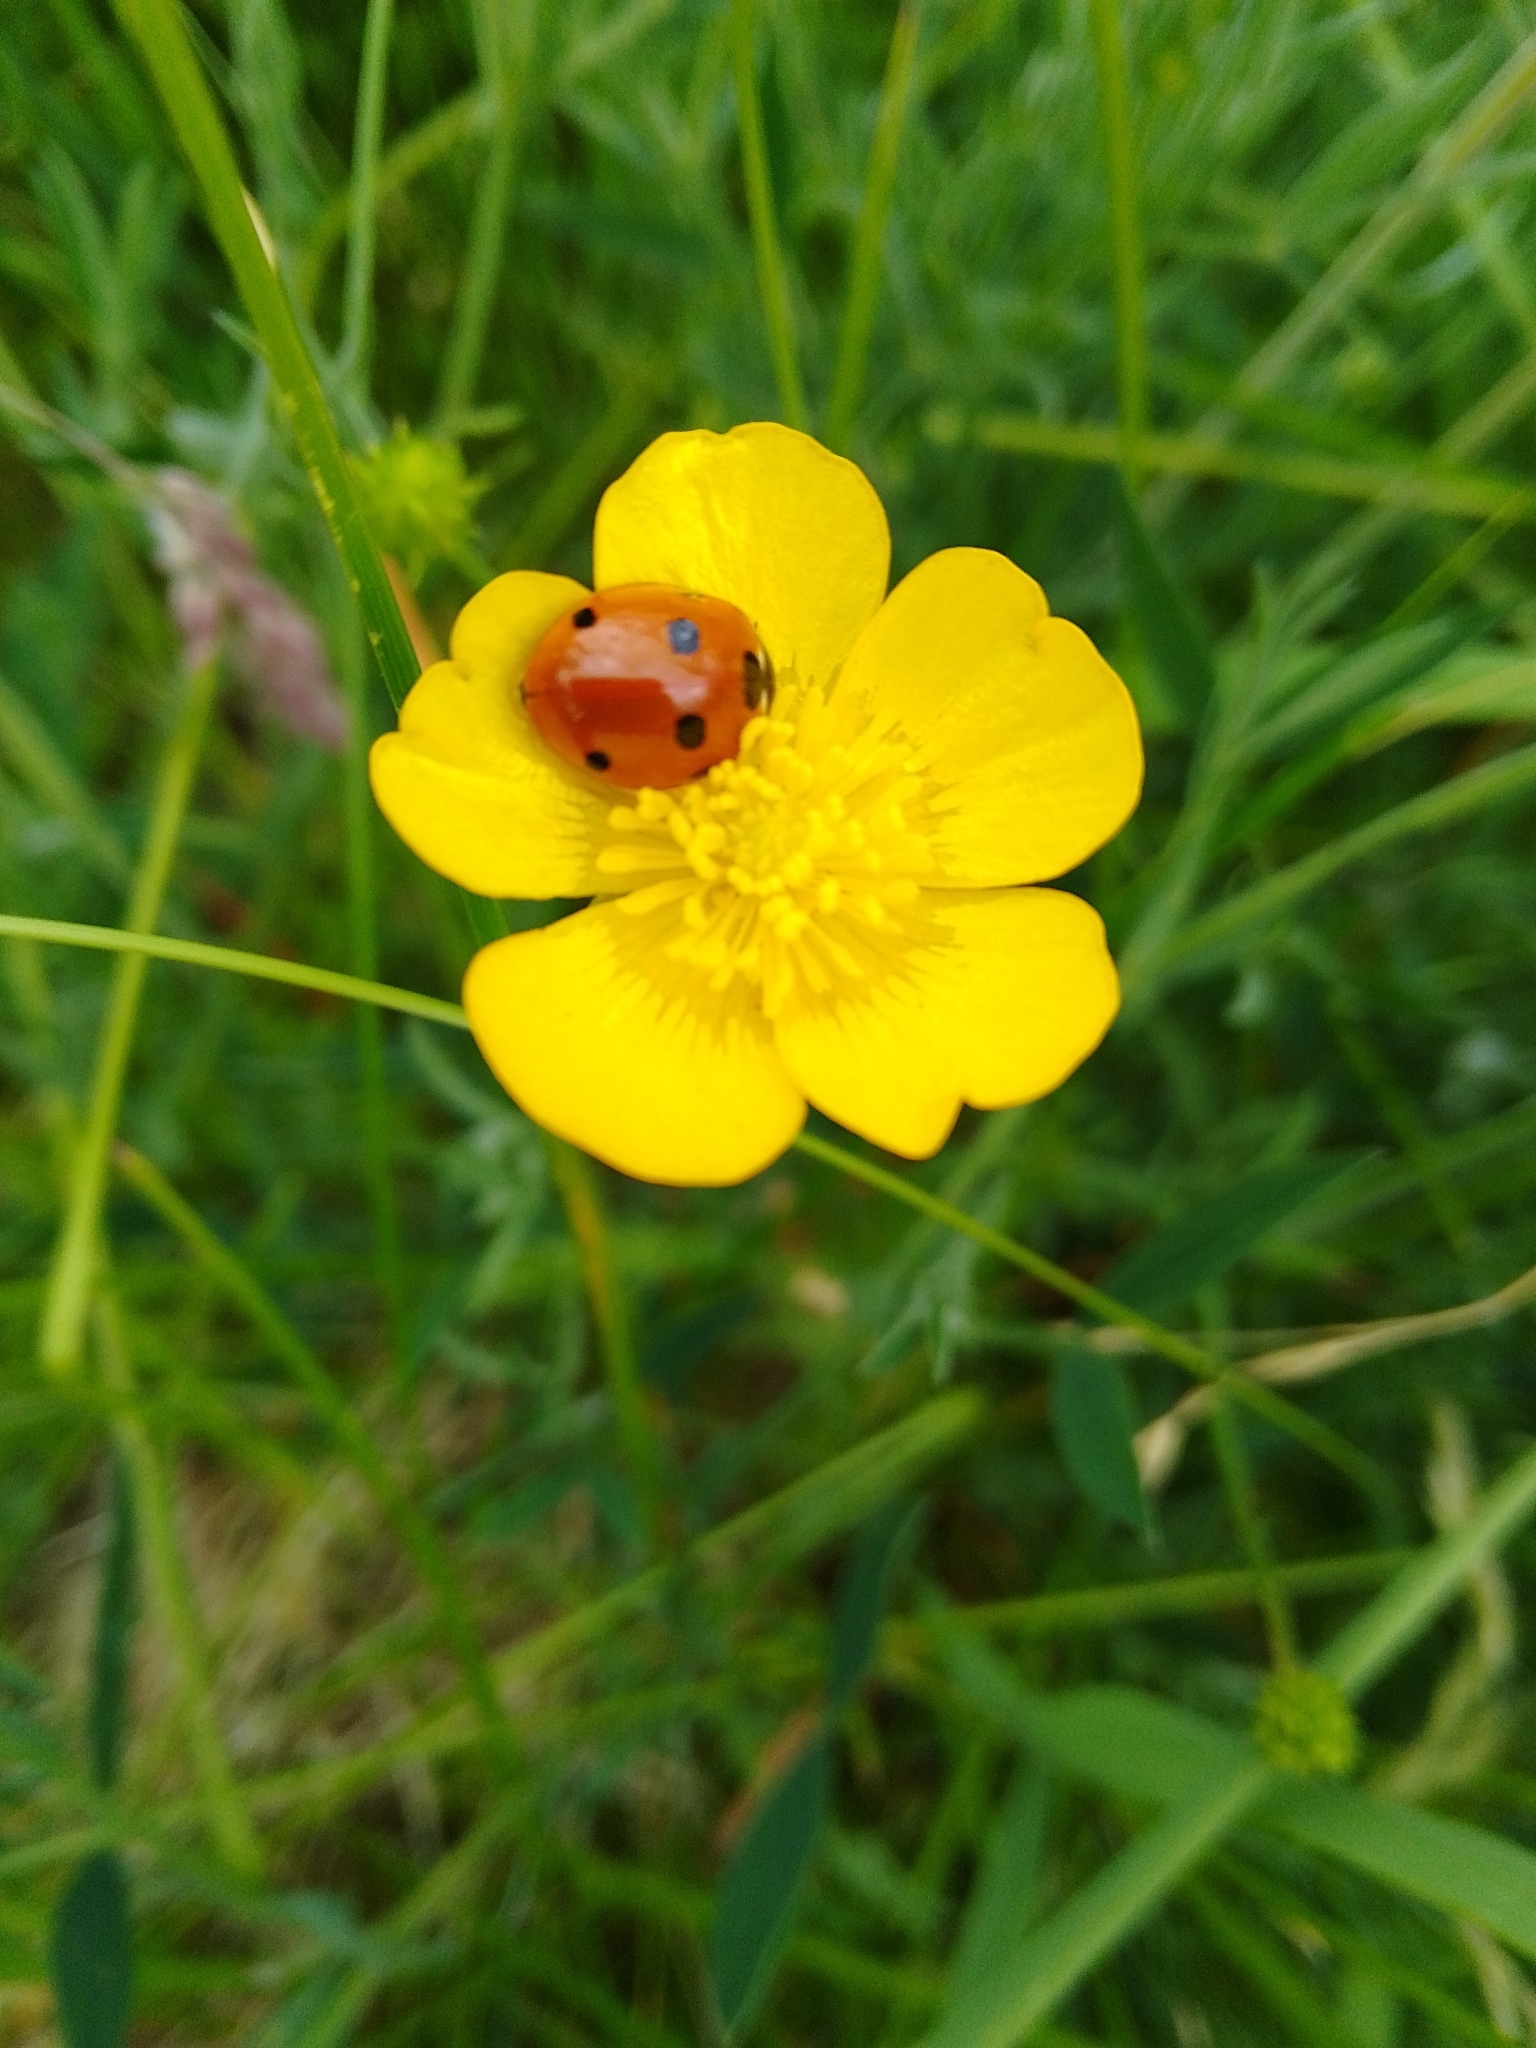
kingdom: Animalia
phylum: Arthropoda
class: Insecta
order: Coleoptera
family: Coccinellidae
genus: Coccinella
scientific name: Coccinella septempunctata
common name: Sevenspotted lady beetle
